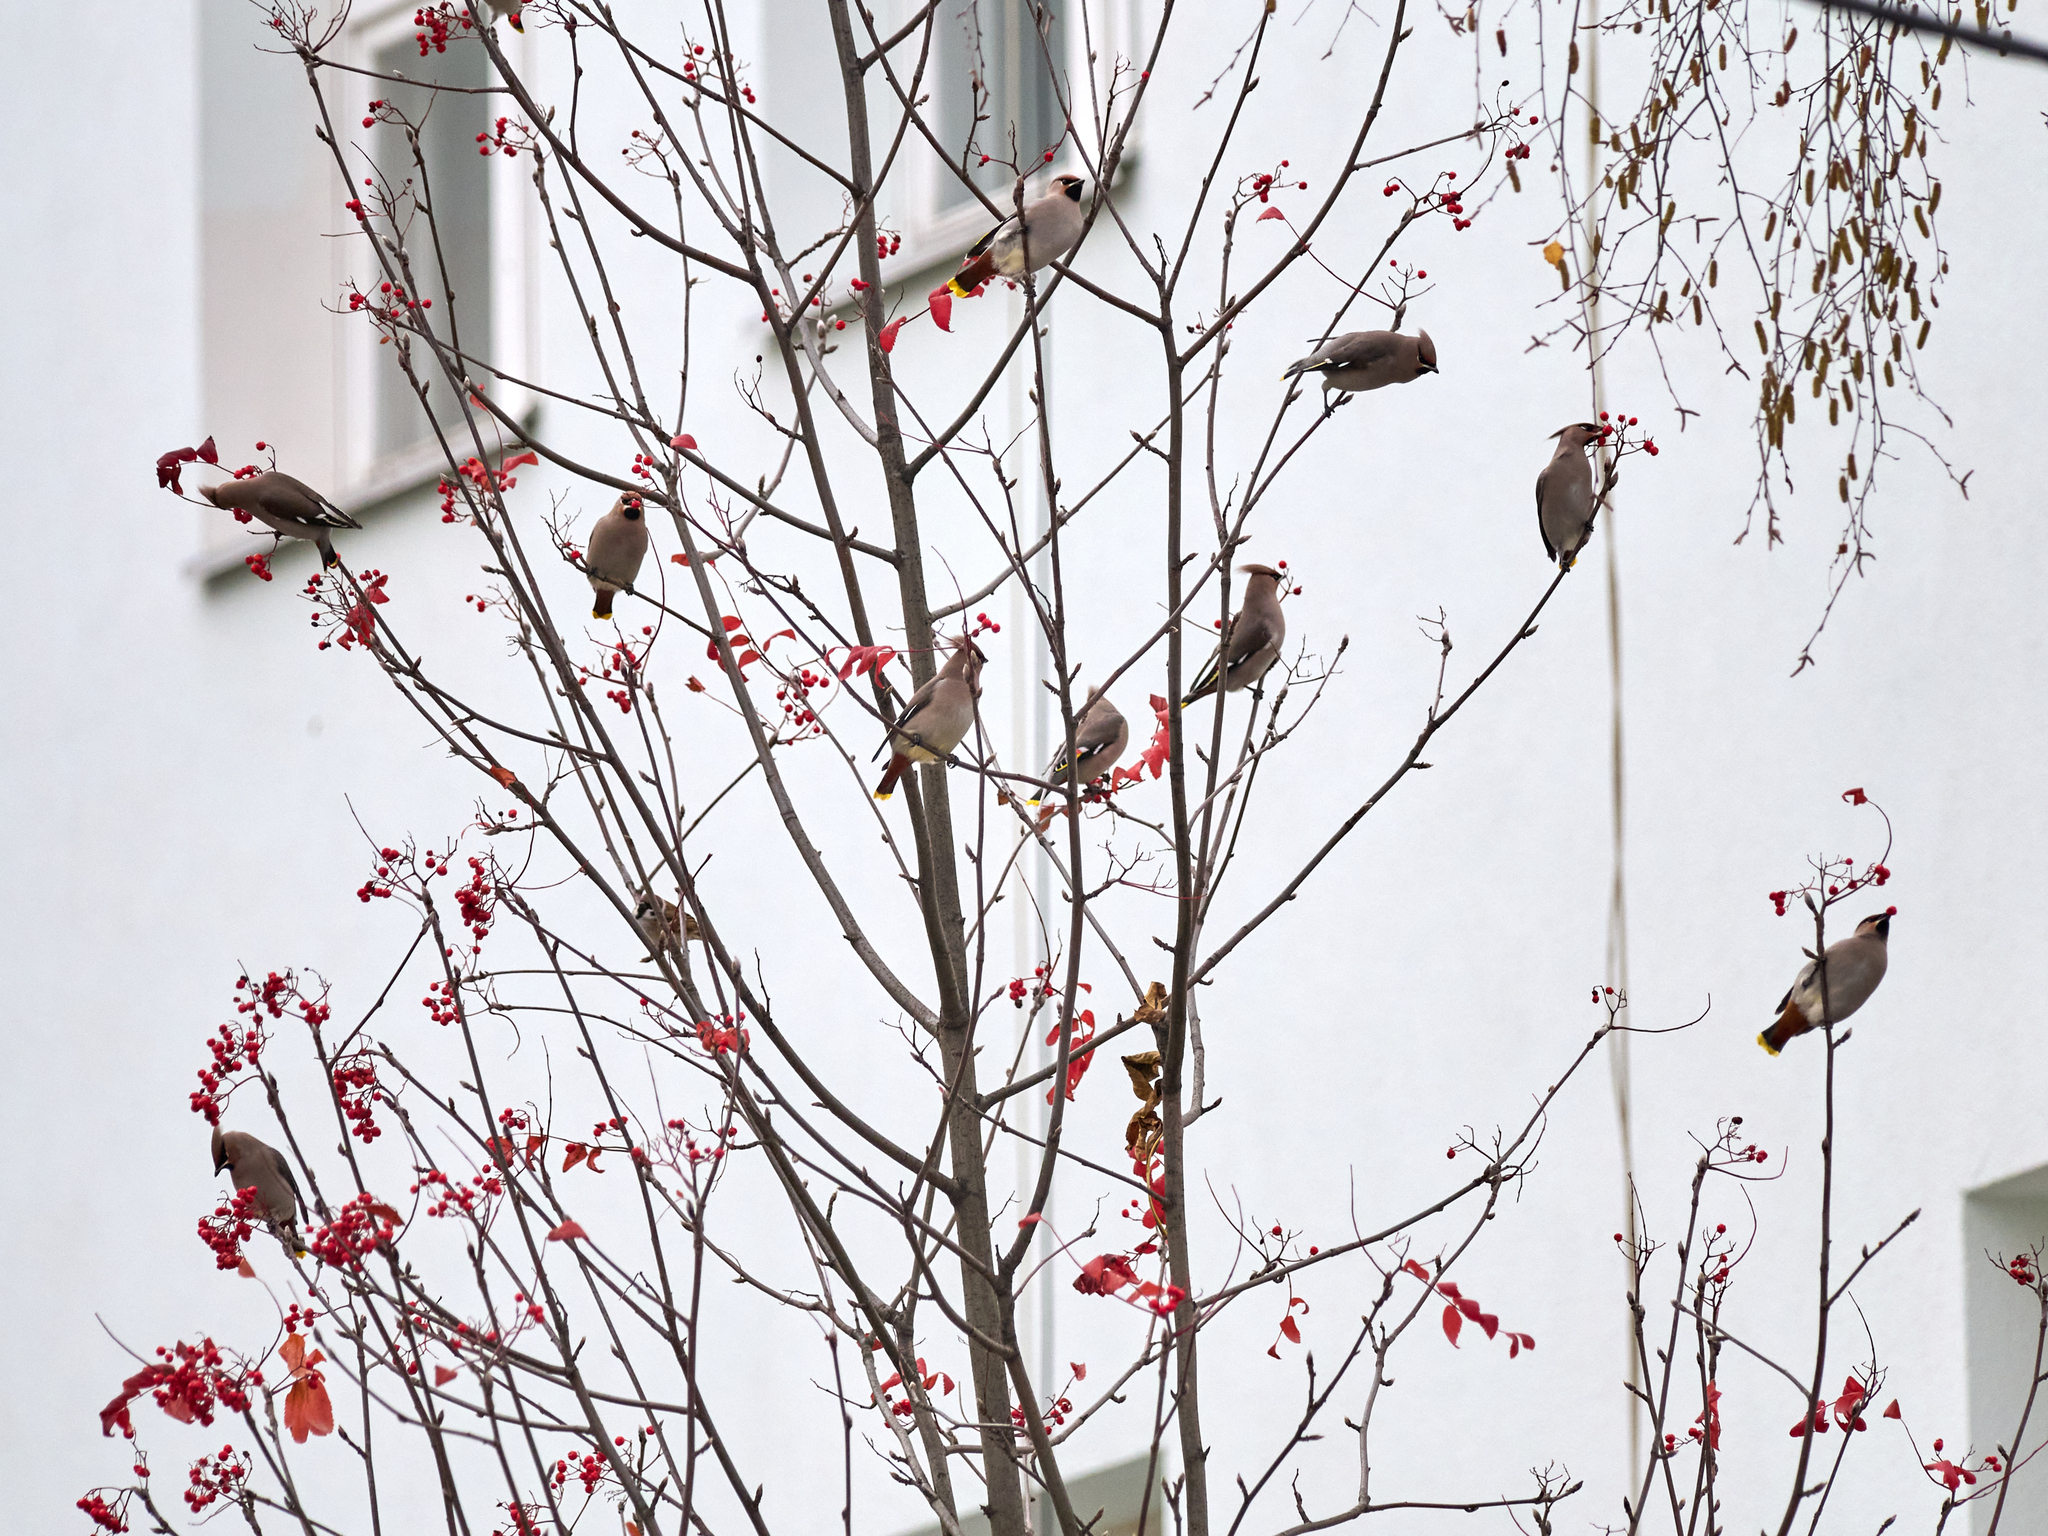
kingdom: Animalia
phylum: Chordata
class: Aves
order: Passeriformes
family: Bombycillidae
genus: Bombycilla
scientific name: Bombycilla garrulus
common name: Bohemian waxwing
